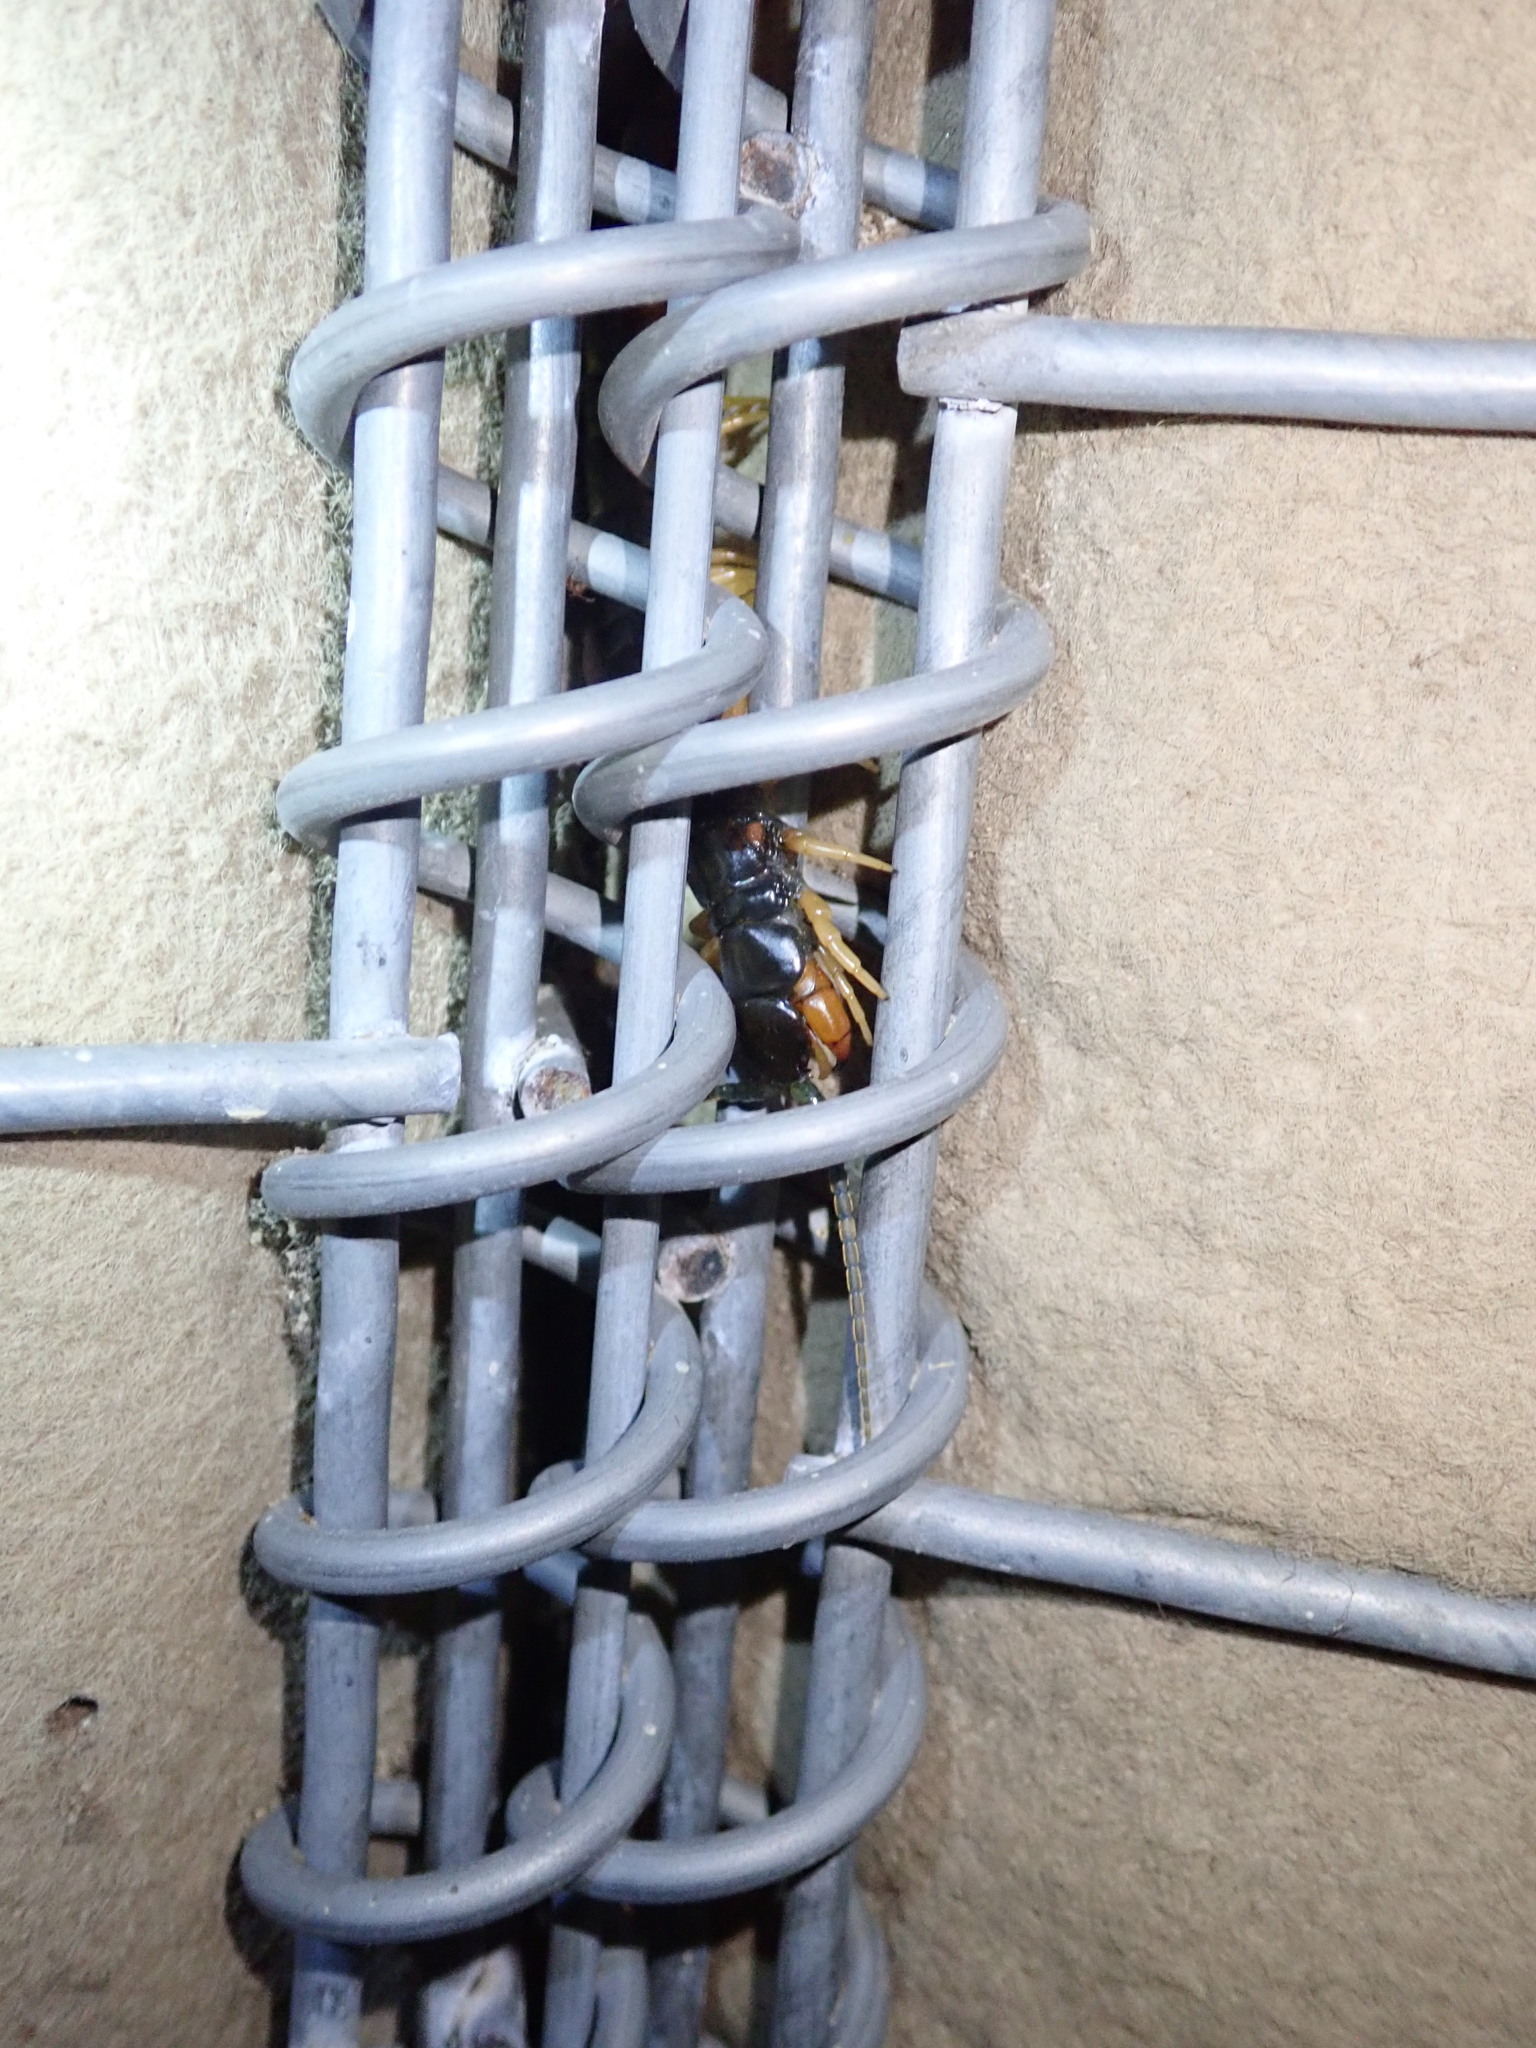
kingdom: Animalia
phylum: Arthropoda
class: Chilopoda
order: Scolopendromorpha
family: Scolopendridae
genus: Ethmostigmus
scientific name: Ethmostigmus trigonopodus
